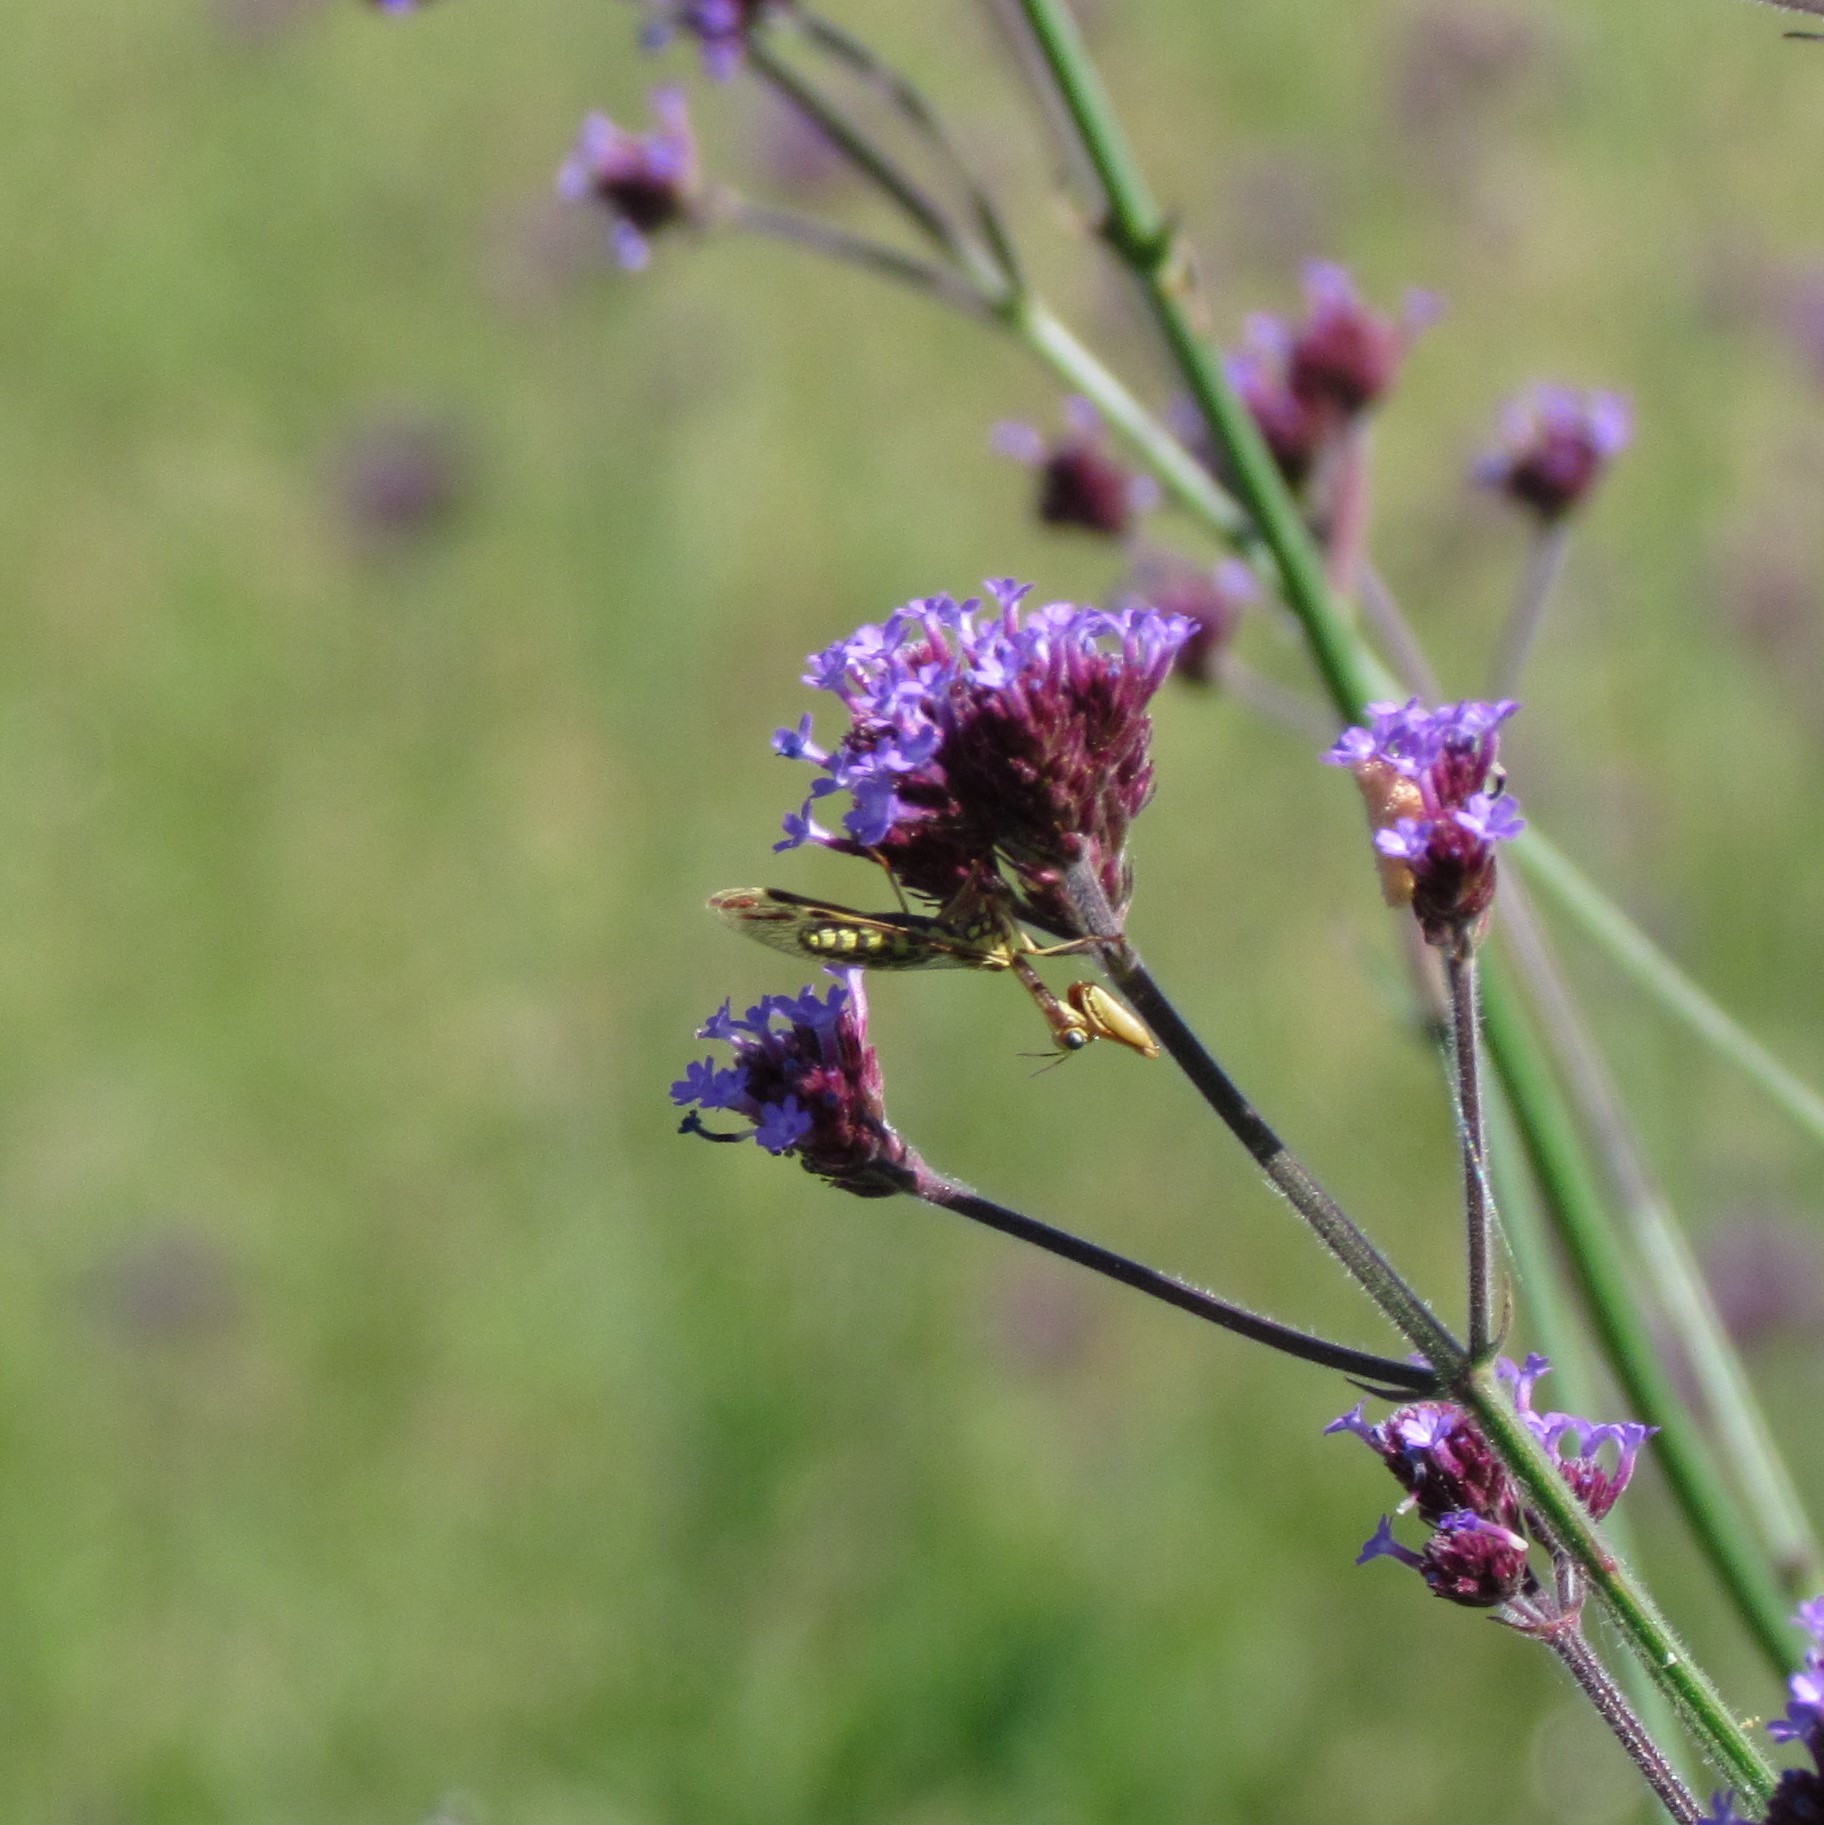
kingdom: Animalia
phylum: Arthropoda
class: Insecta
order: Neuroptera
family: Mantispidae
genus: Paramantispa
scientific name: Paramantispa prolixa
